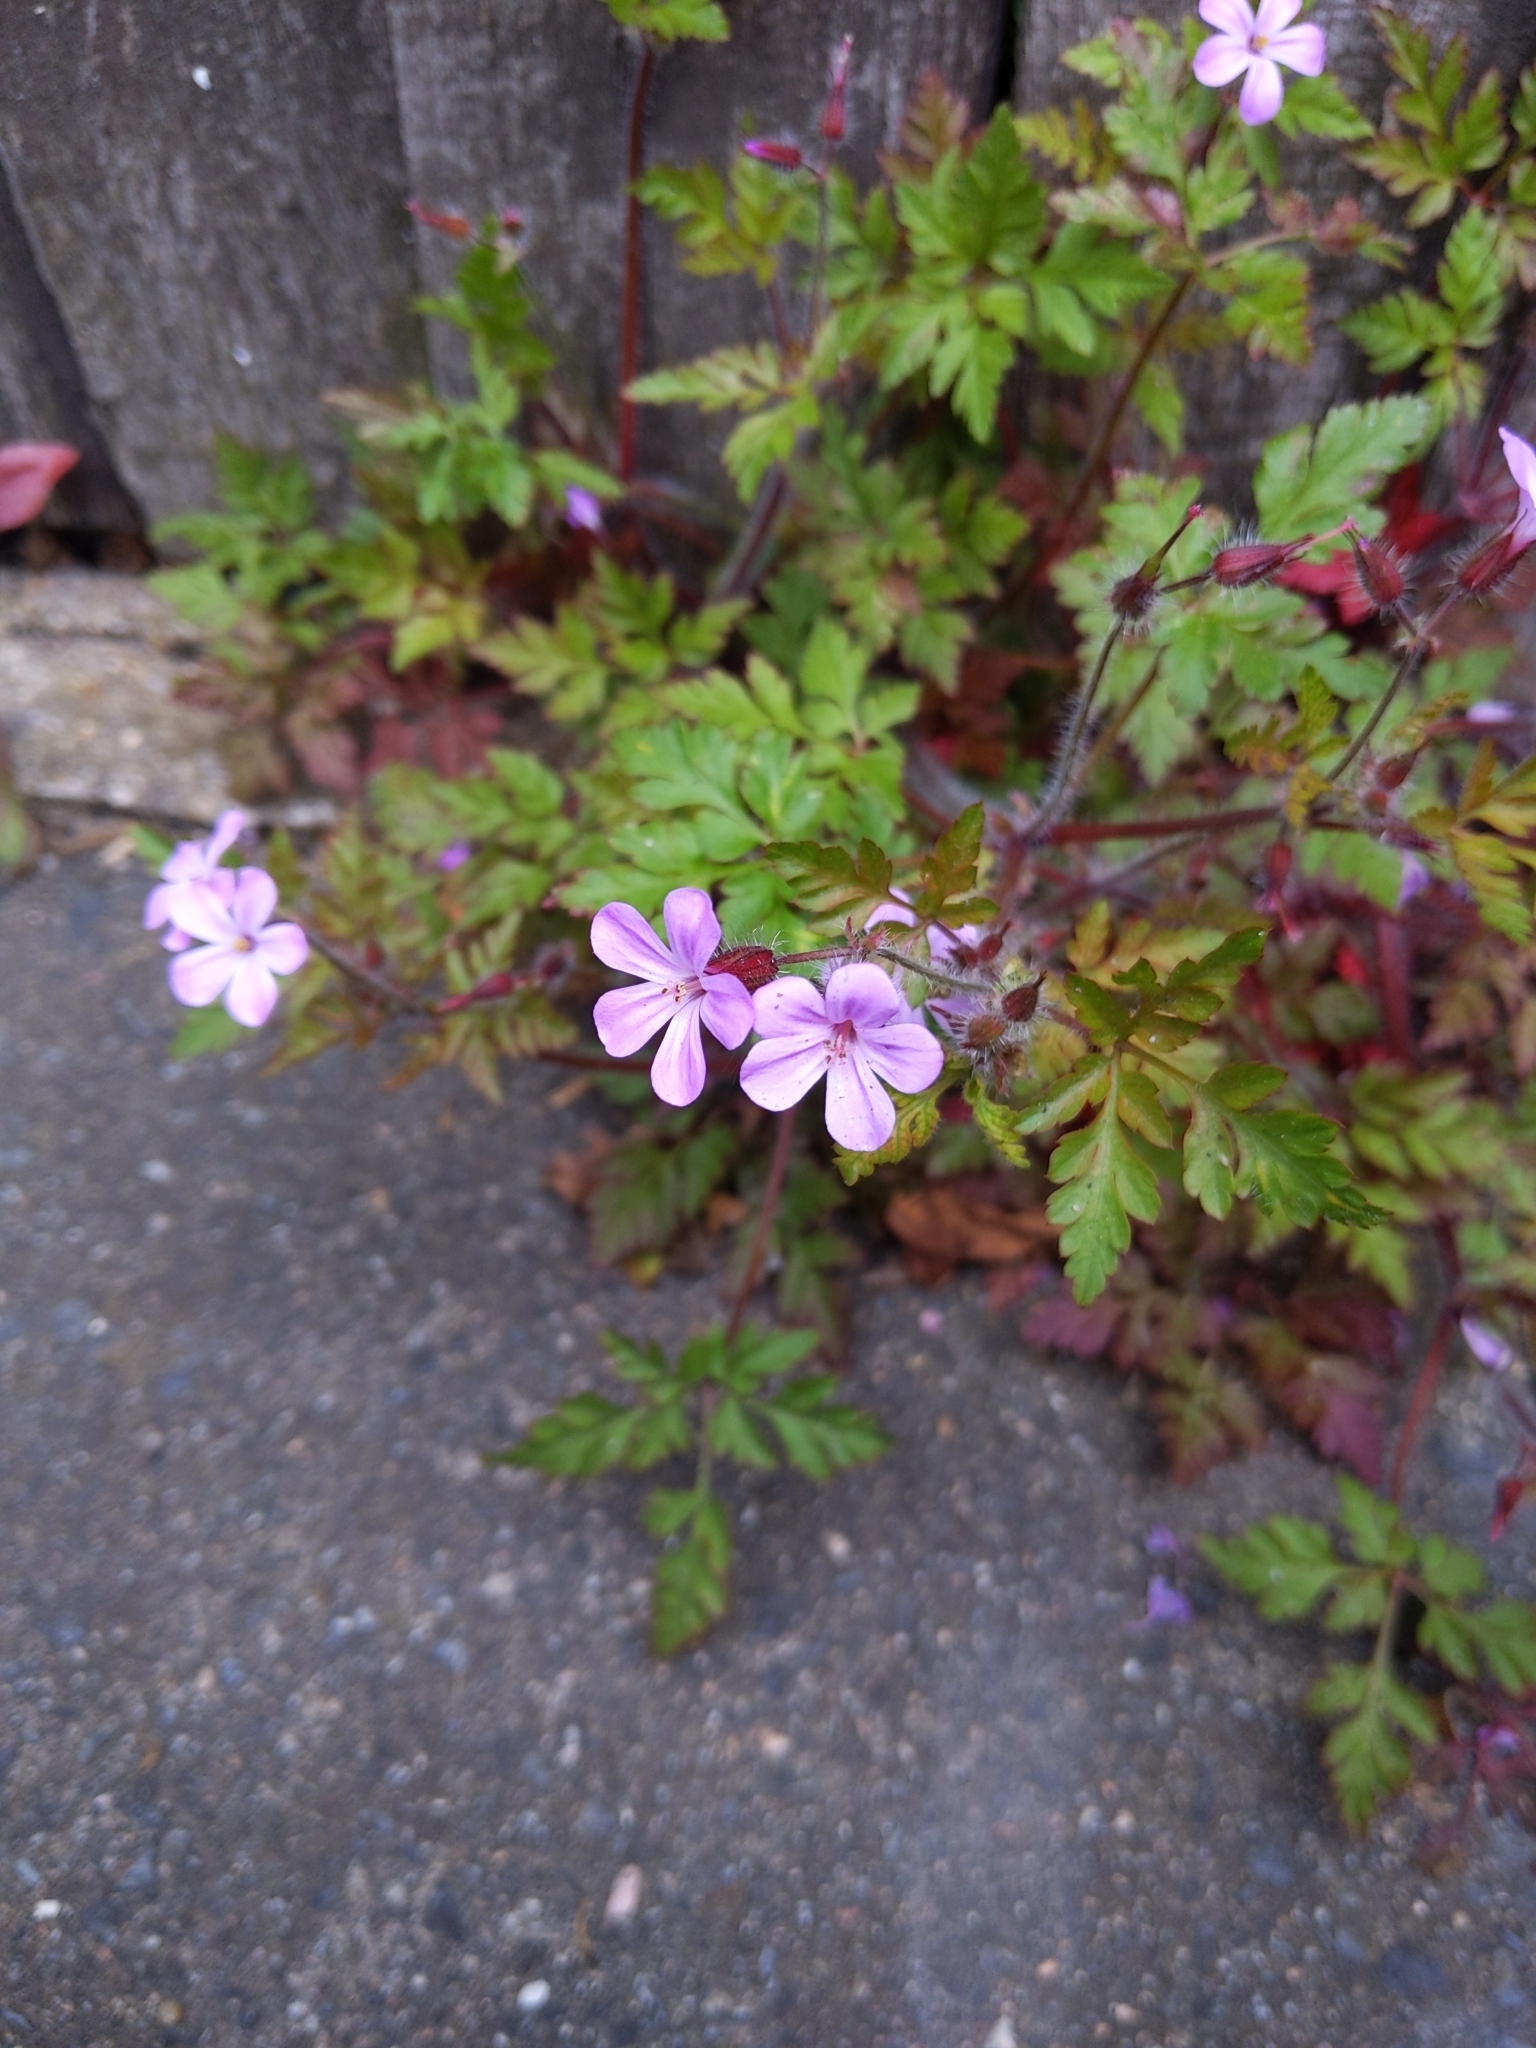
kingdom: Plantae
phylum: Tracheophyta
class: Magnoliopsida
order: Geraniales
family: Geraniaceae
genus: Geranium
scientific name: Geranium robertianum
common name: Herb-robert
